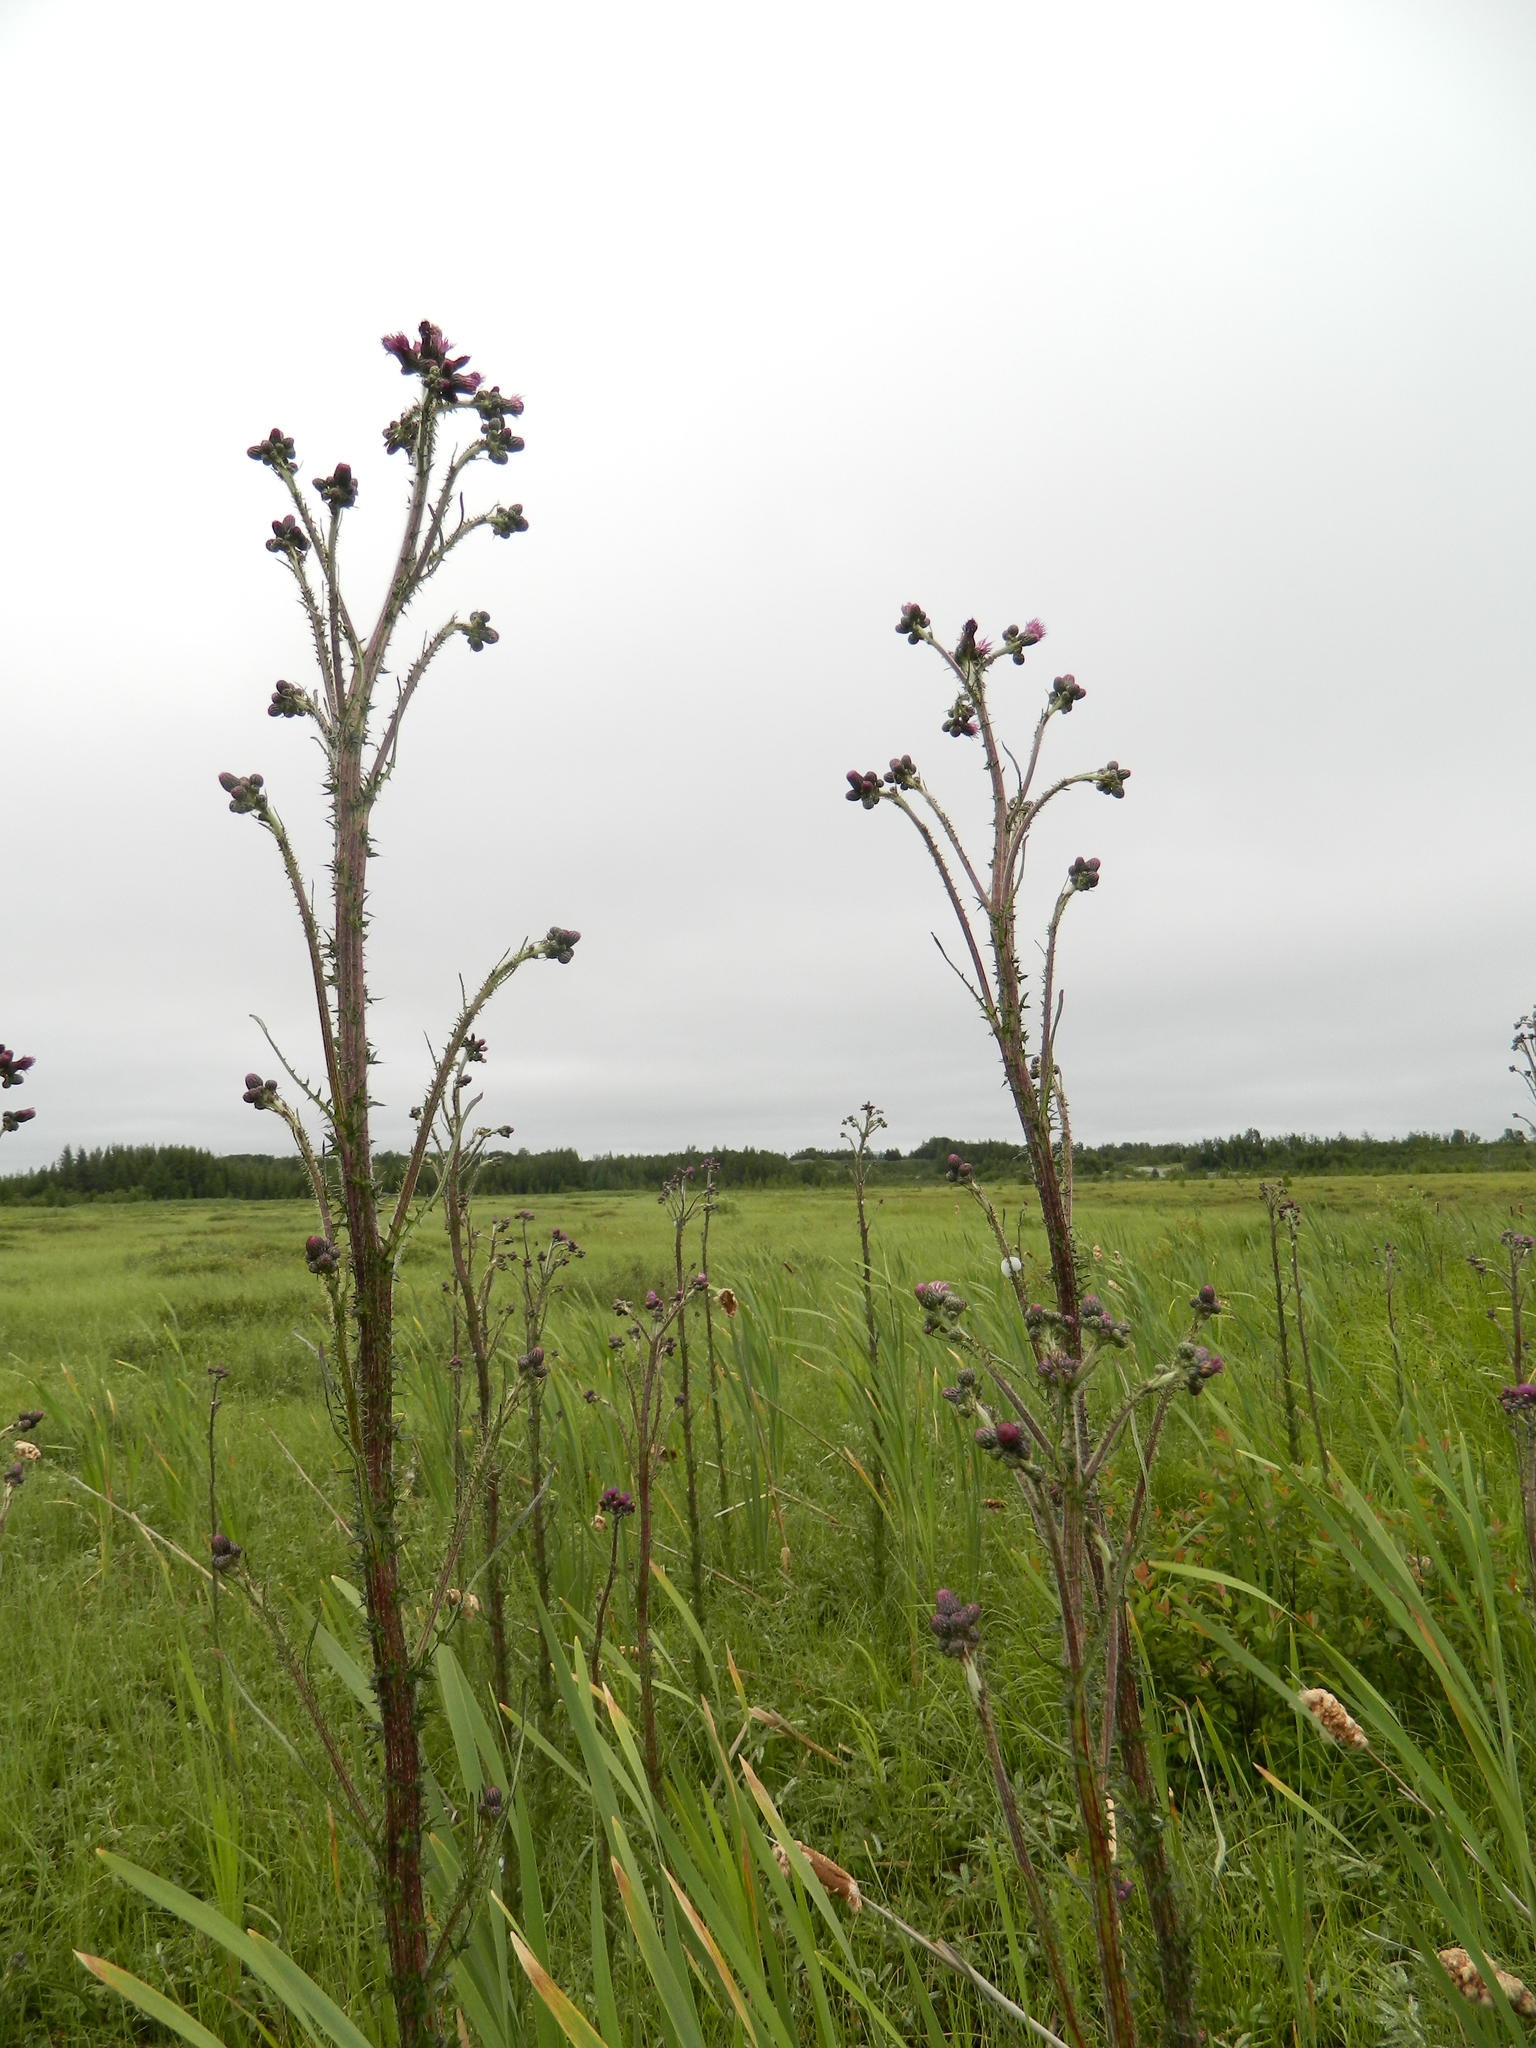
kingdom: Plantae
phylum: Tracheophyta
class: Magnoliopsida
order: Asterales
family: Asteraceae
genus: Cirsium
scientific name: Cirsium palustre
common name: Marsh thistle
